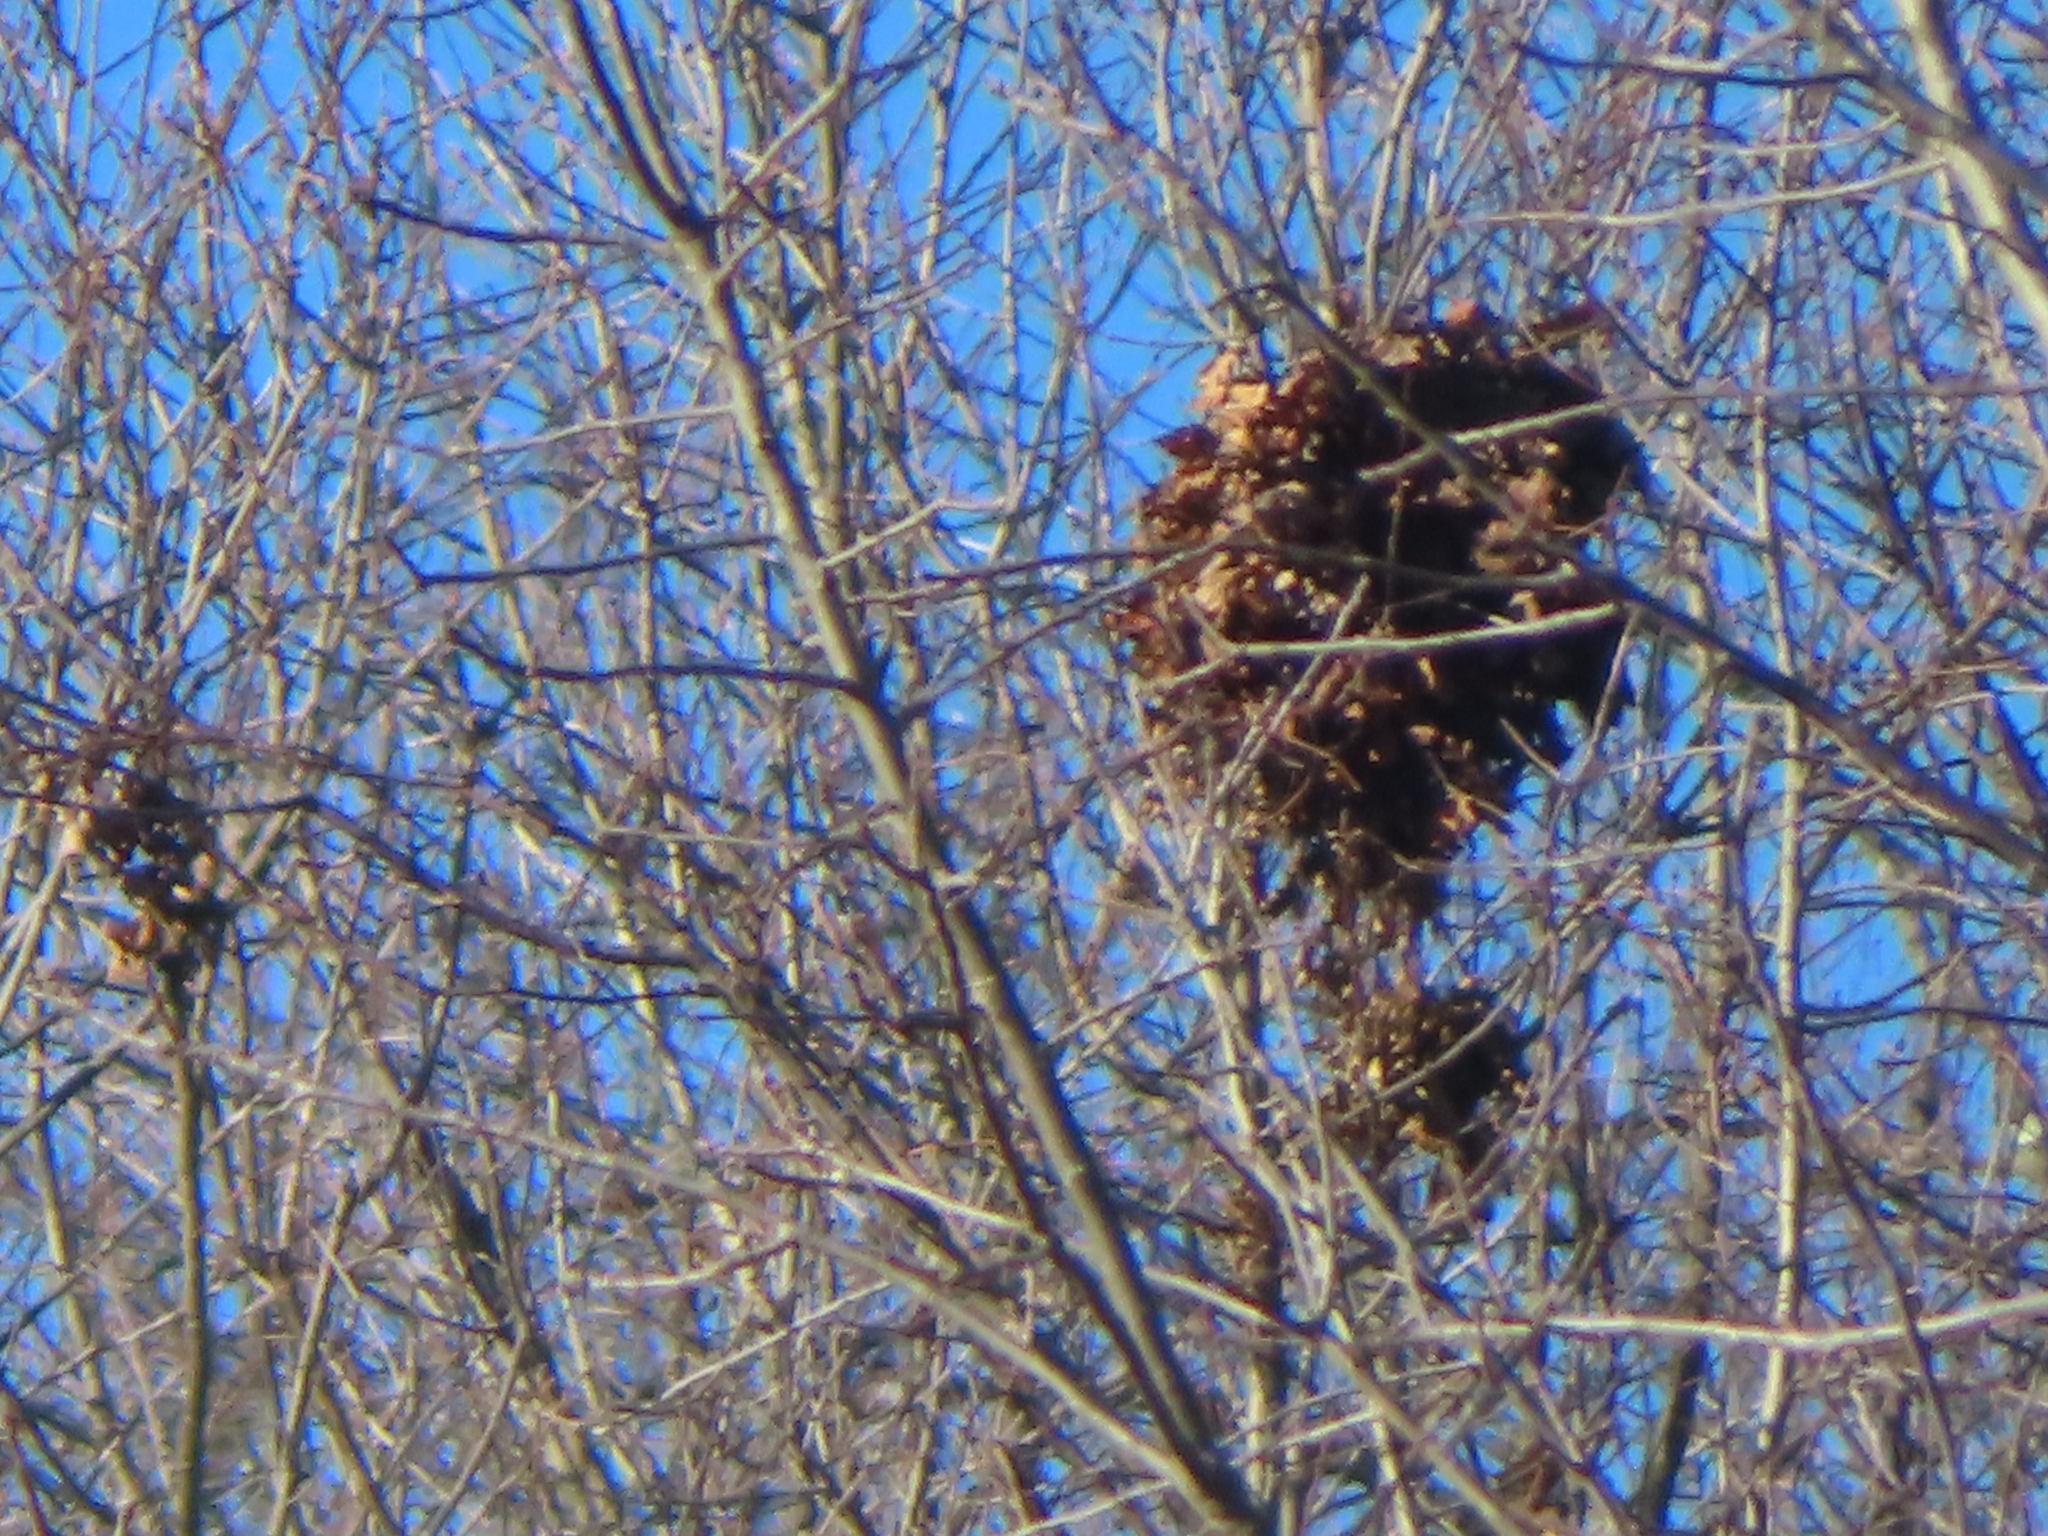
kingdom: Animalia
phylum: Chordata
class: Mammalia
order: Rodentia
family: Sciuridae
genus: Sciurus
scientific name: Sciurus carolinensis
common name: Eastern gray squirrel
